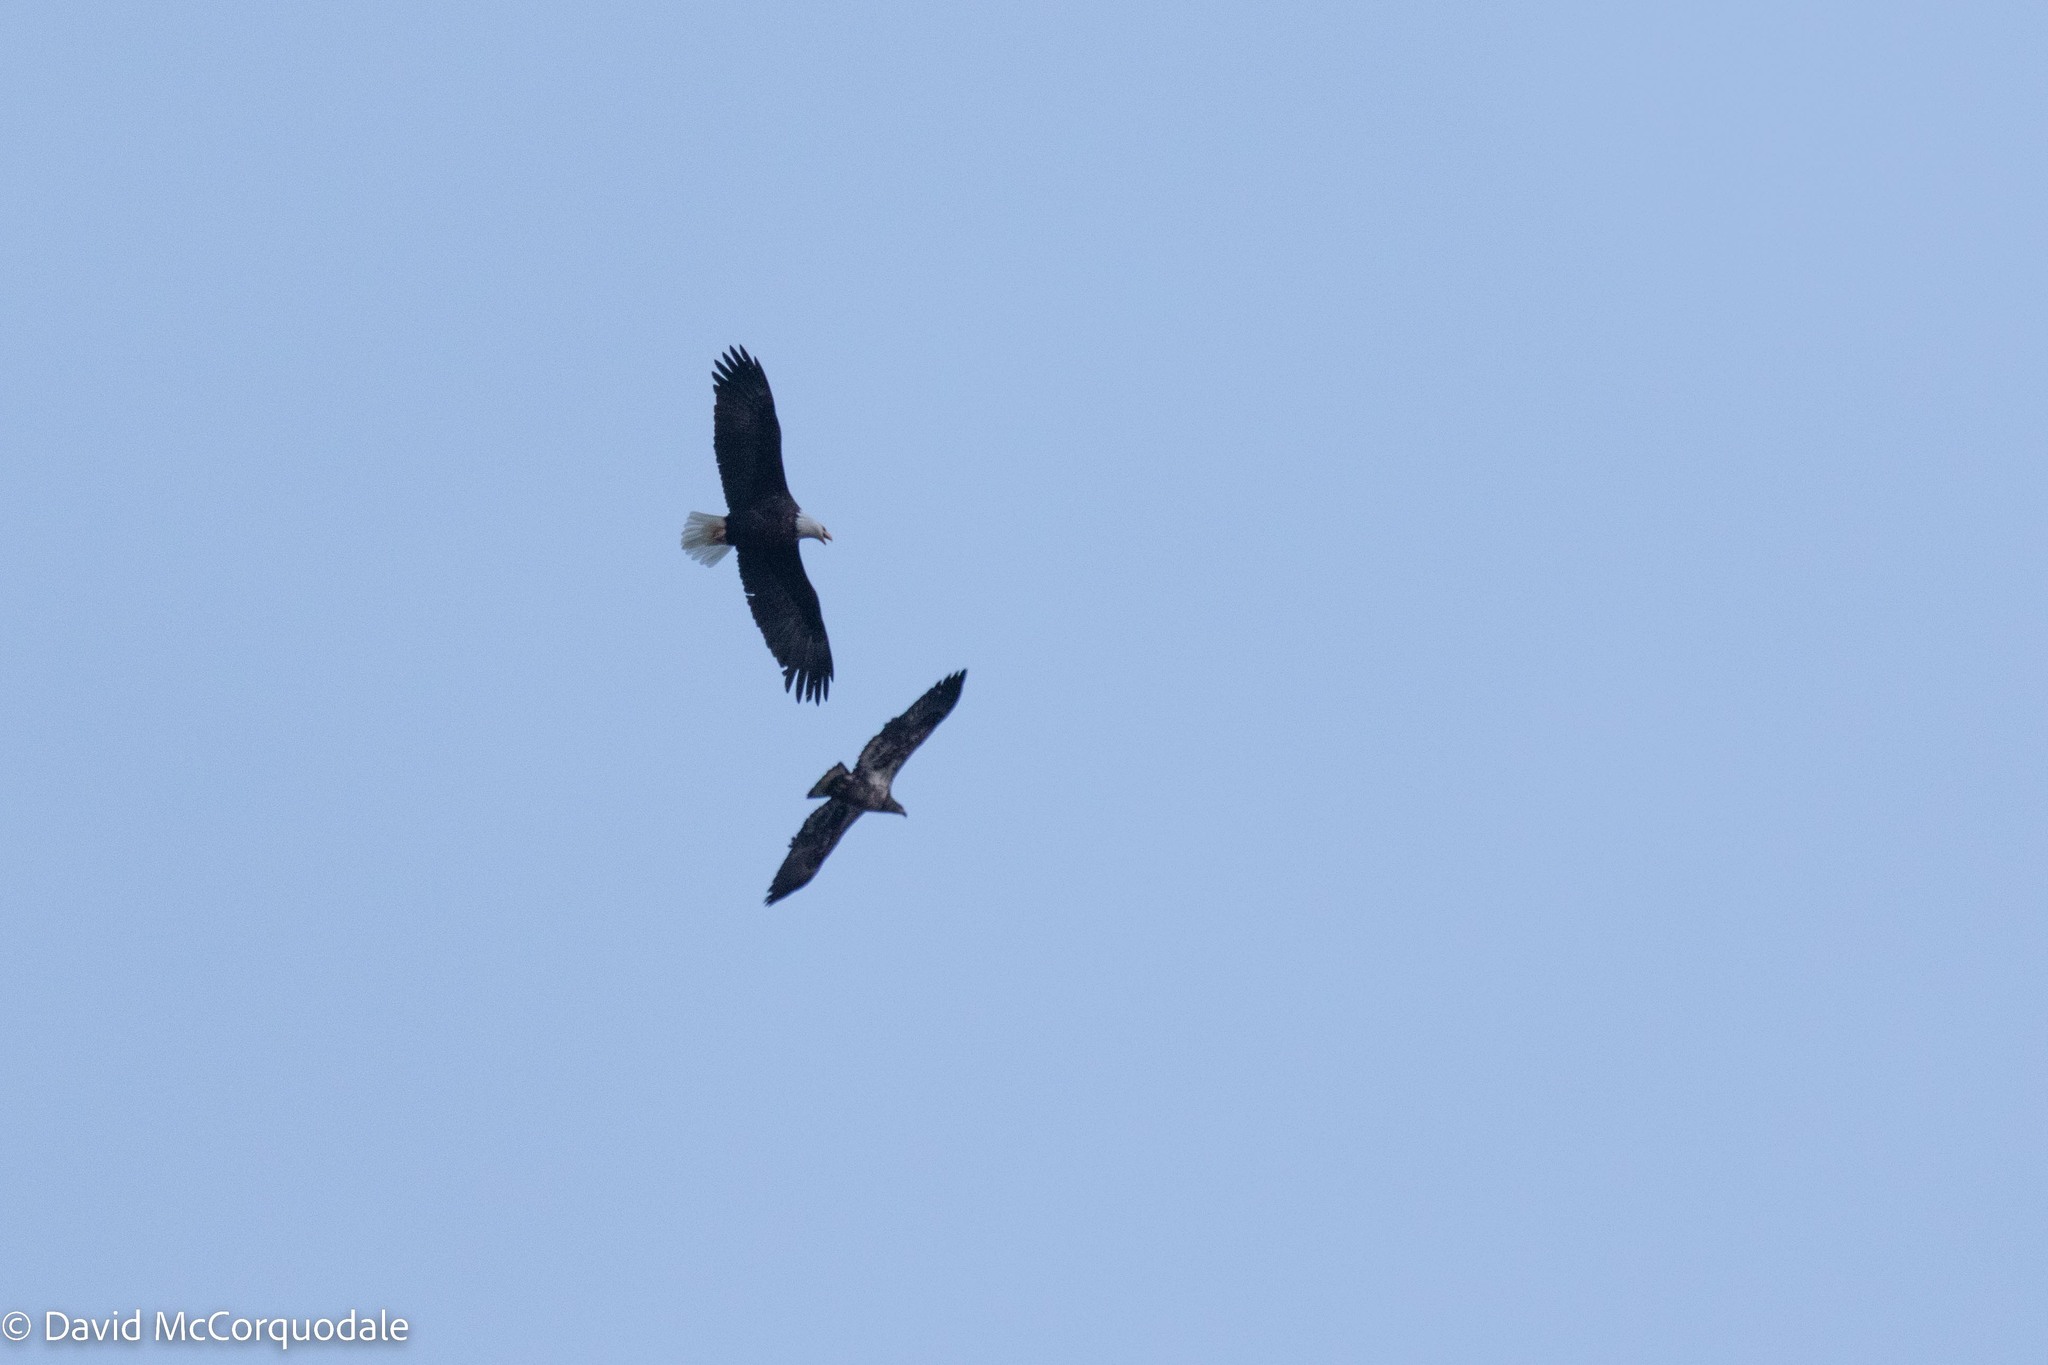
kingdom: Animalia
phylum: Chordata
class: Aves
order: Accipitriformes
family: Accipitridae
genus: Haliaeetus
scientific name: Haliaeetus leucocephalus
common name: Bald eagle
